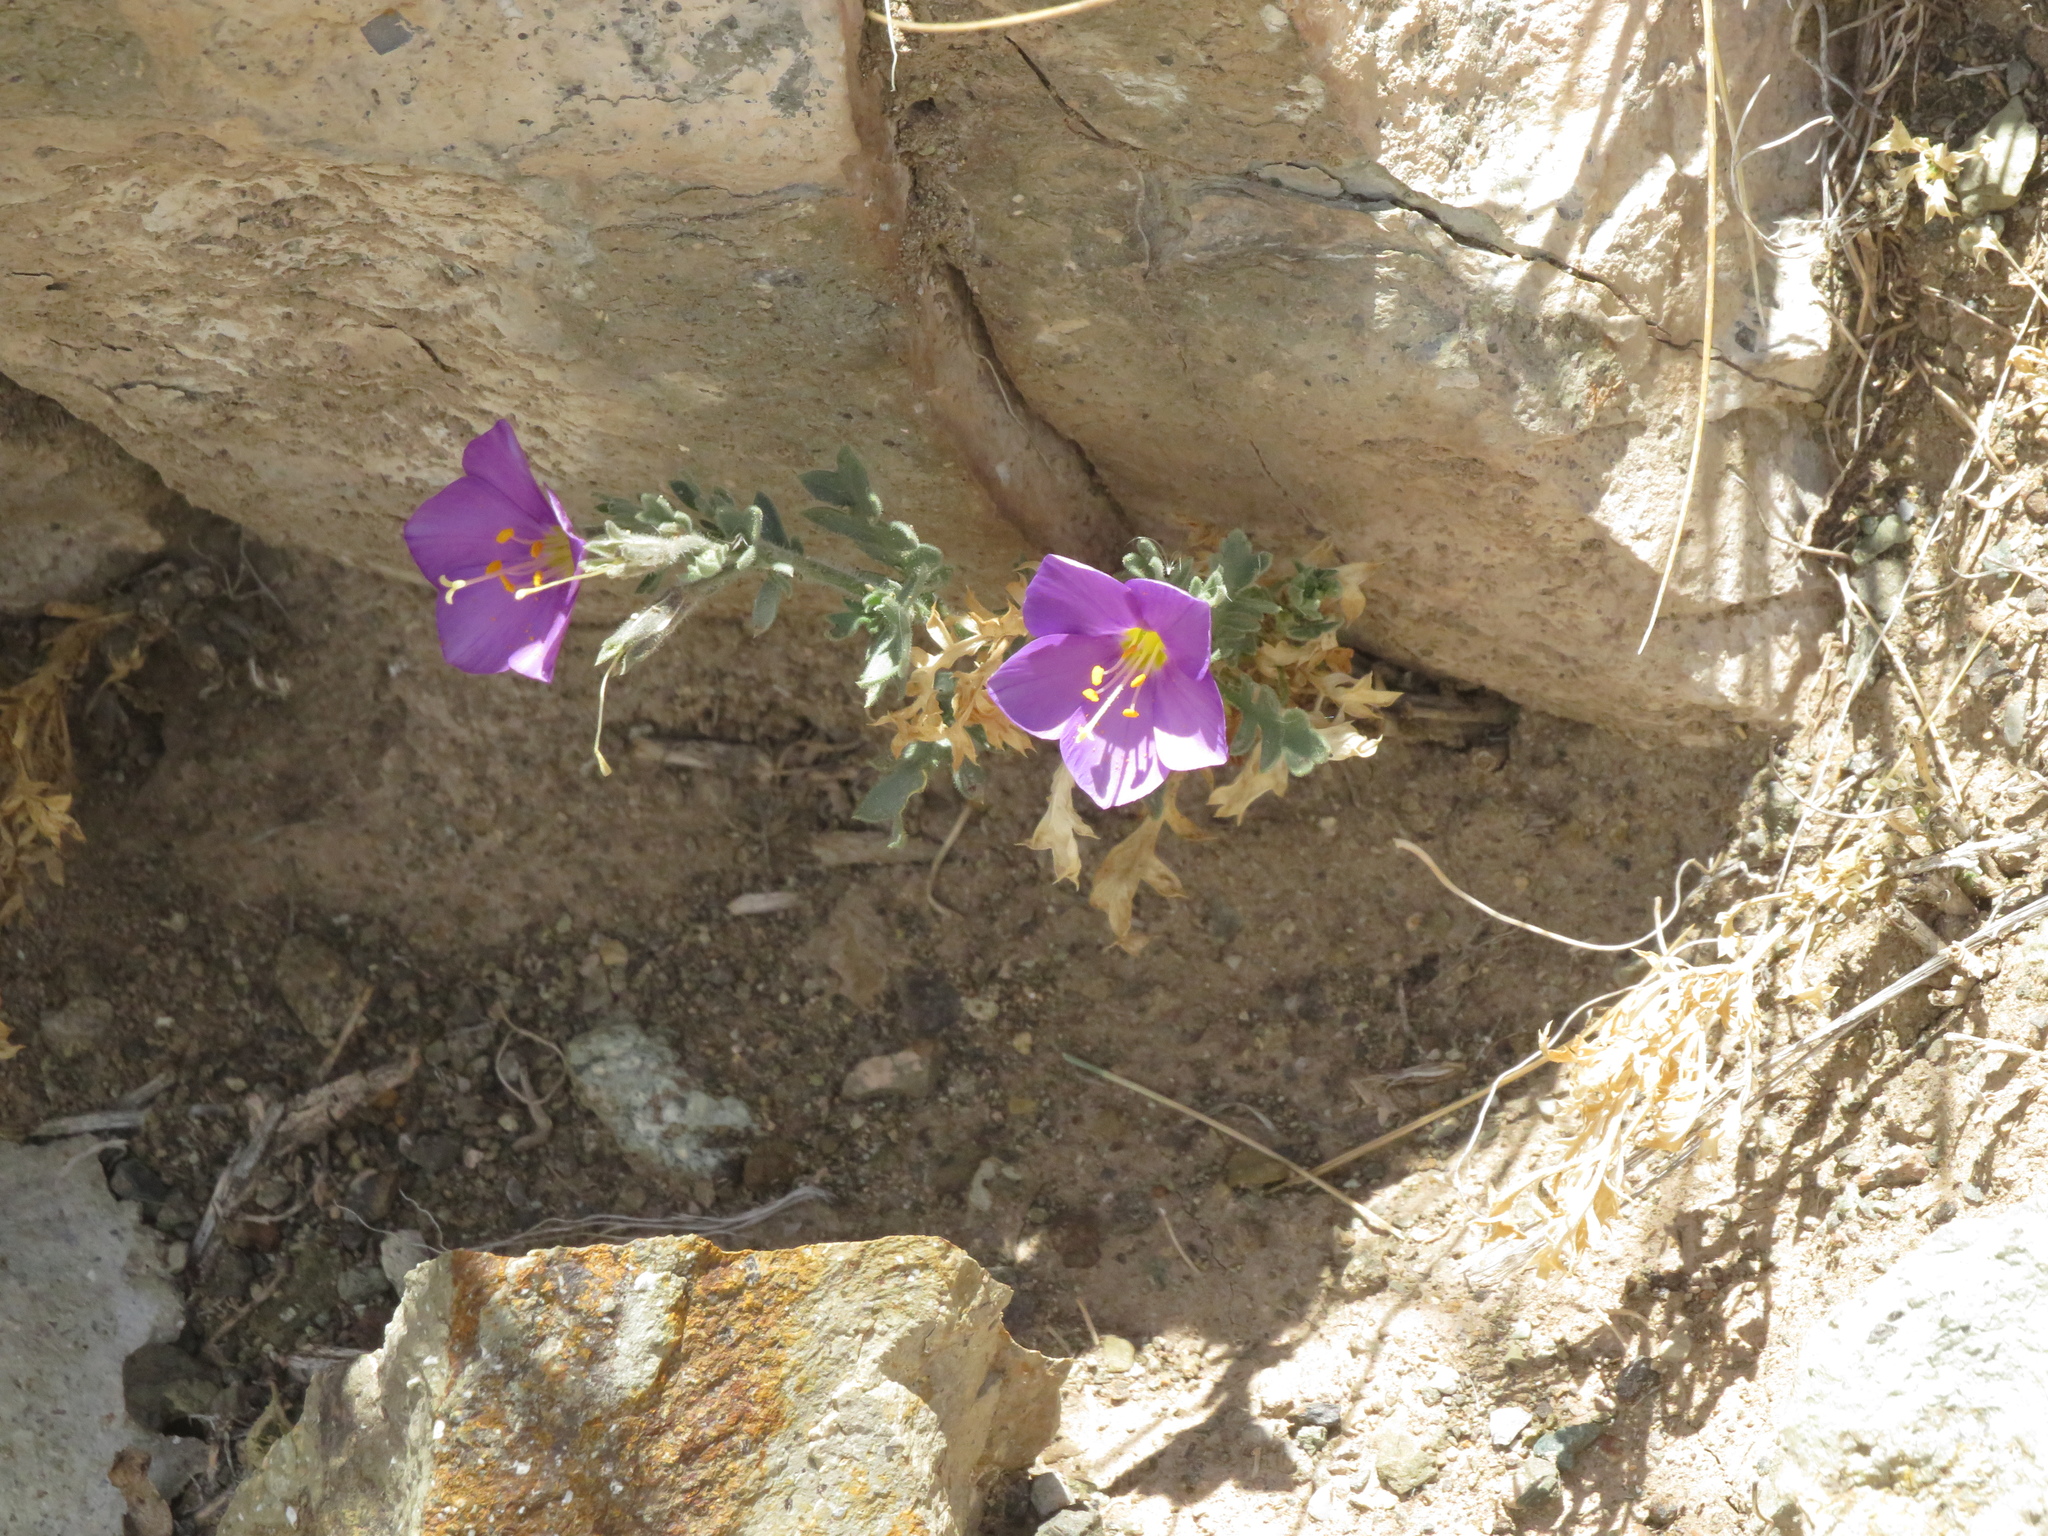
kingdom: Plantae
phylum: Tracheophyta
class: Magnoliopsida
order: Ericales
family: Polemoniaceae
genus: Giliastrum
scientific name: Giliastrum foetidum
